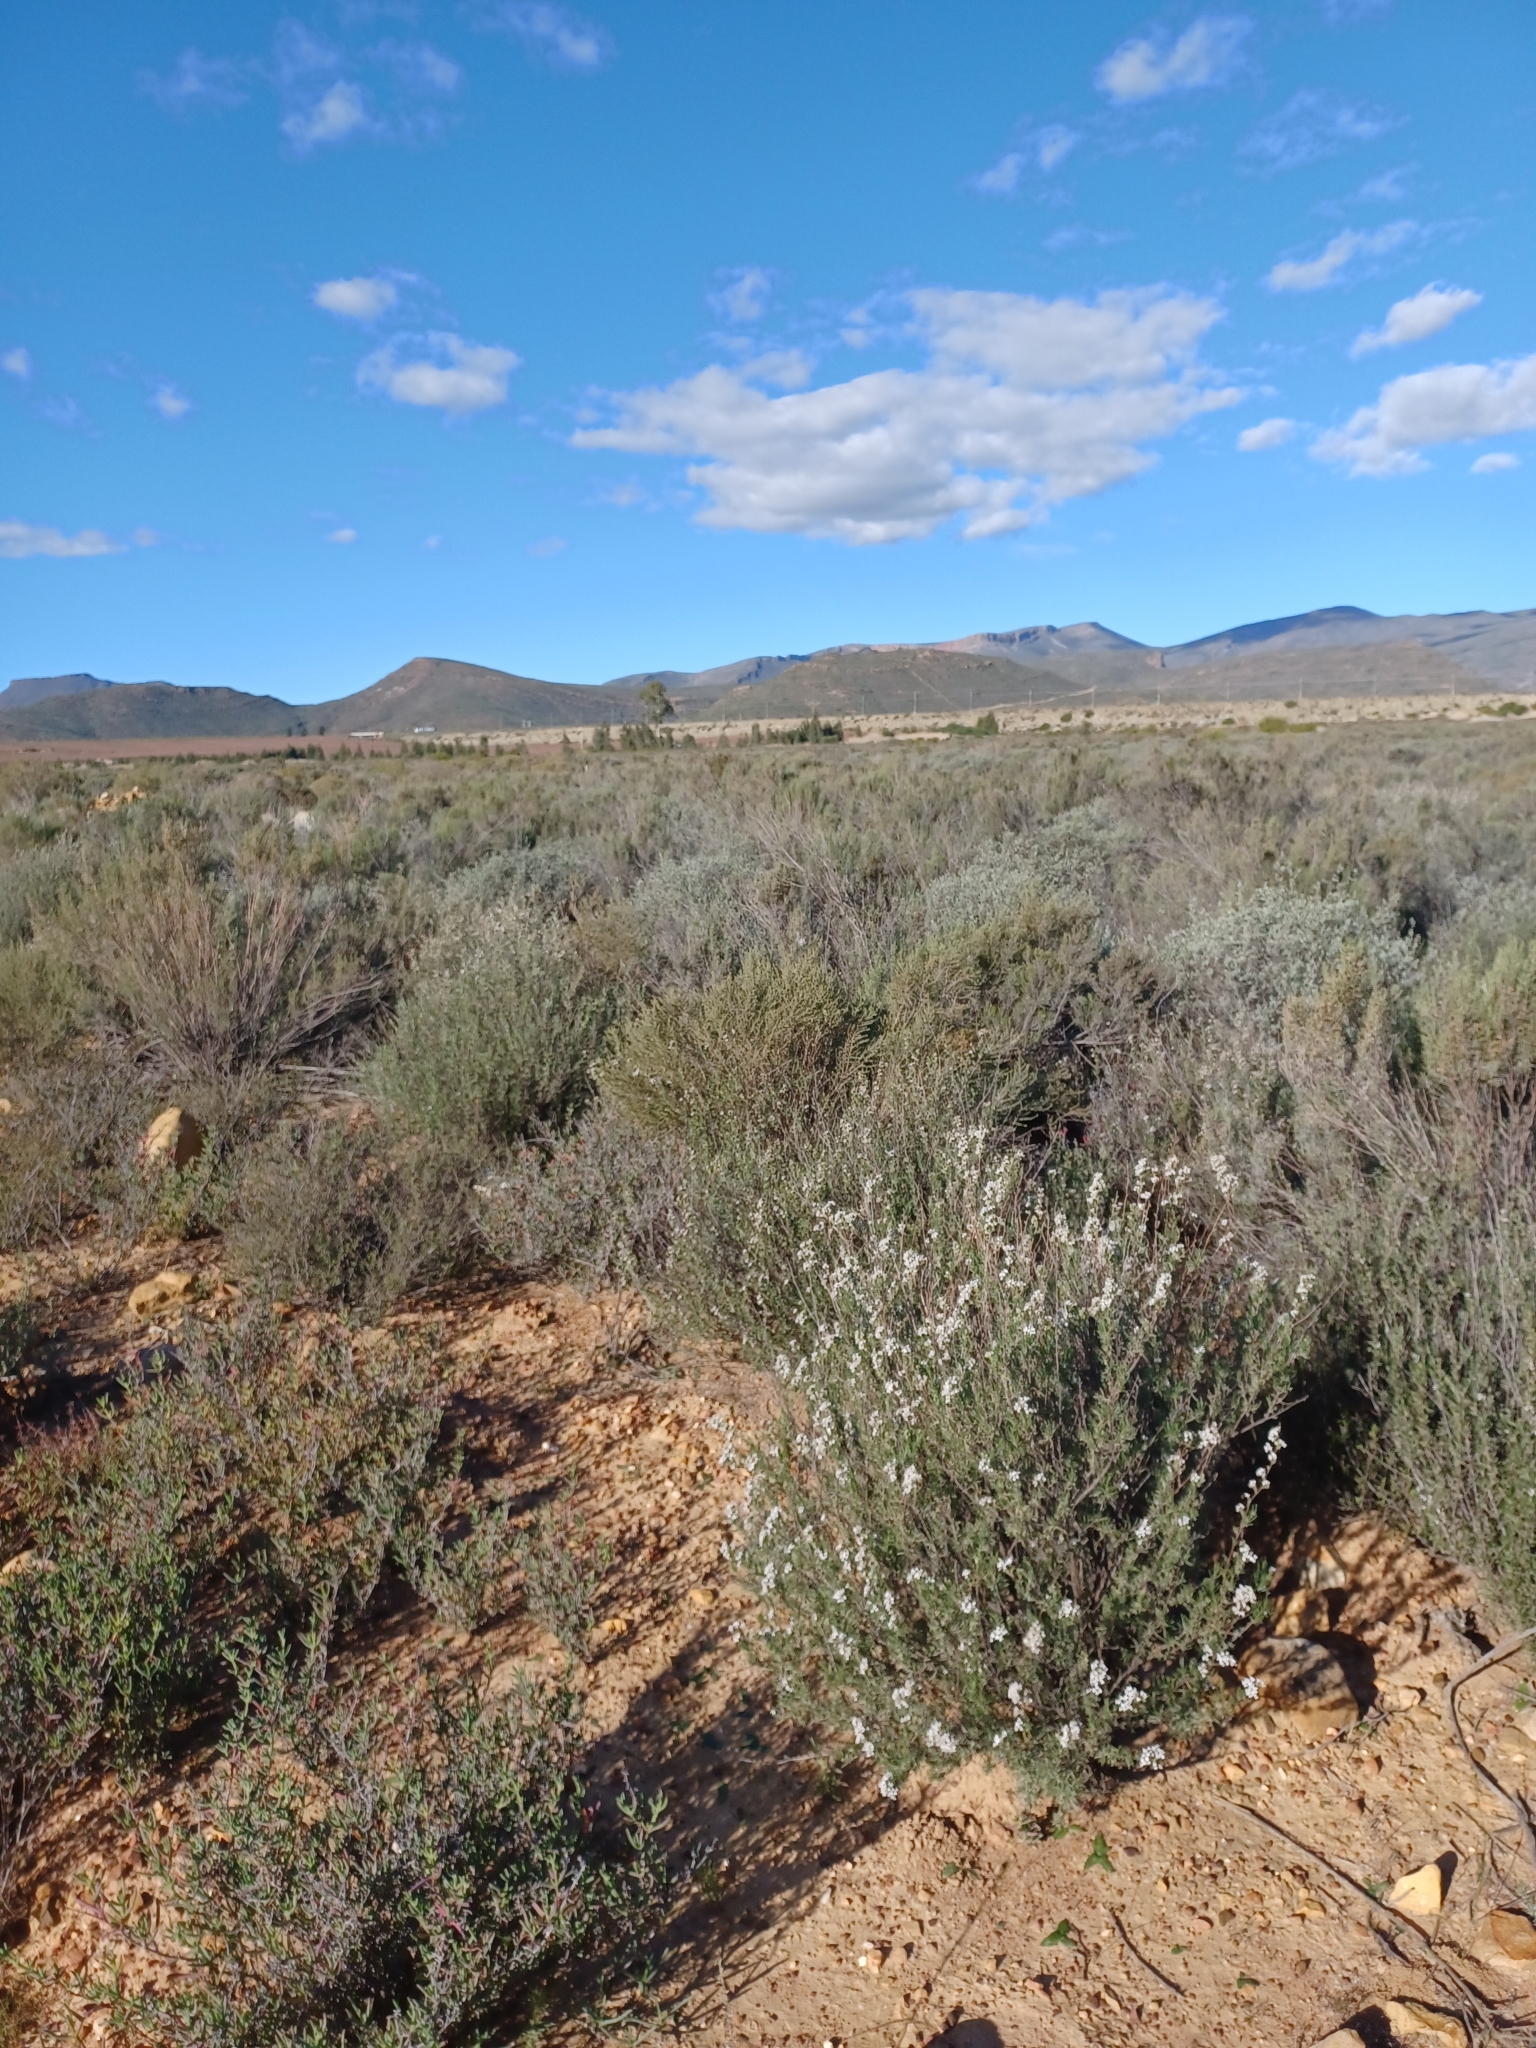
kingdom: Plantae
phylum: Tracheophyta
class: Magnoliopsida
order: Asterales
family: Asteraceae
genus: Eriocephalus
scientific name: Eriocephalus africanus
